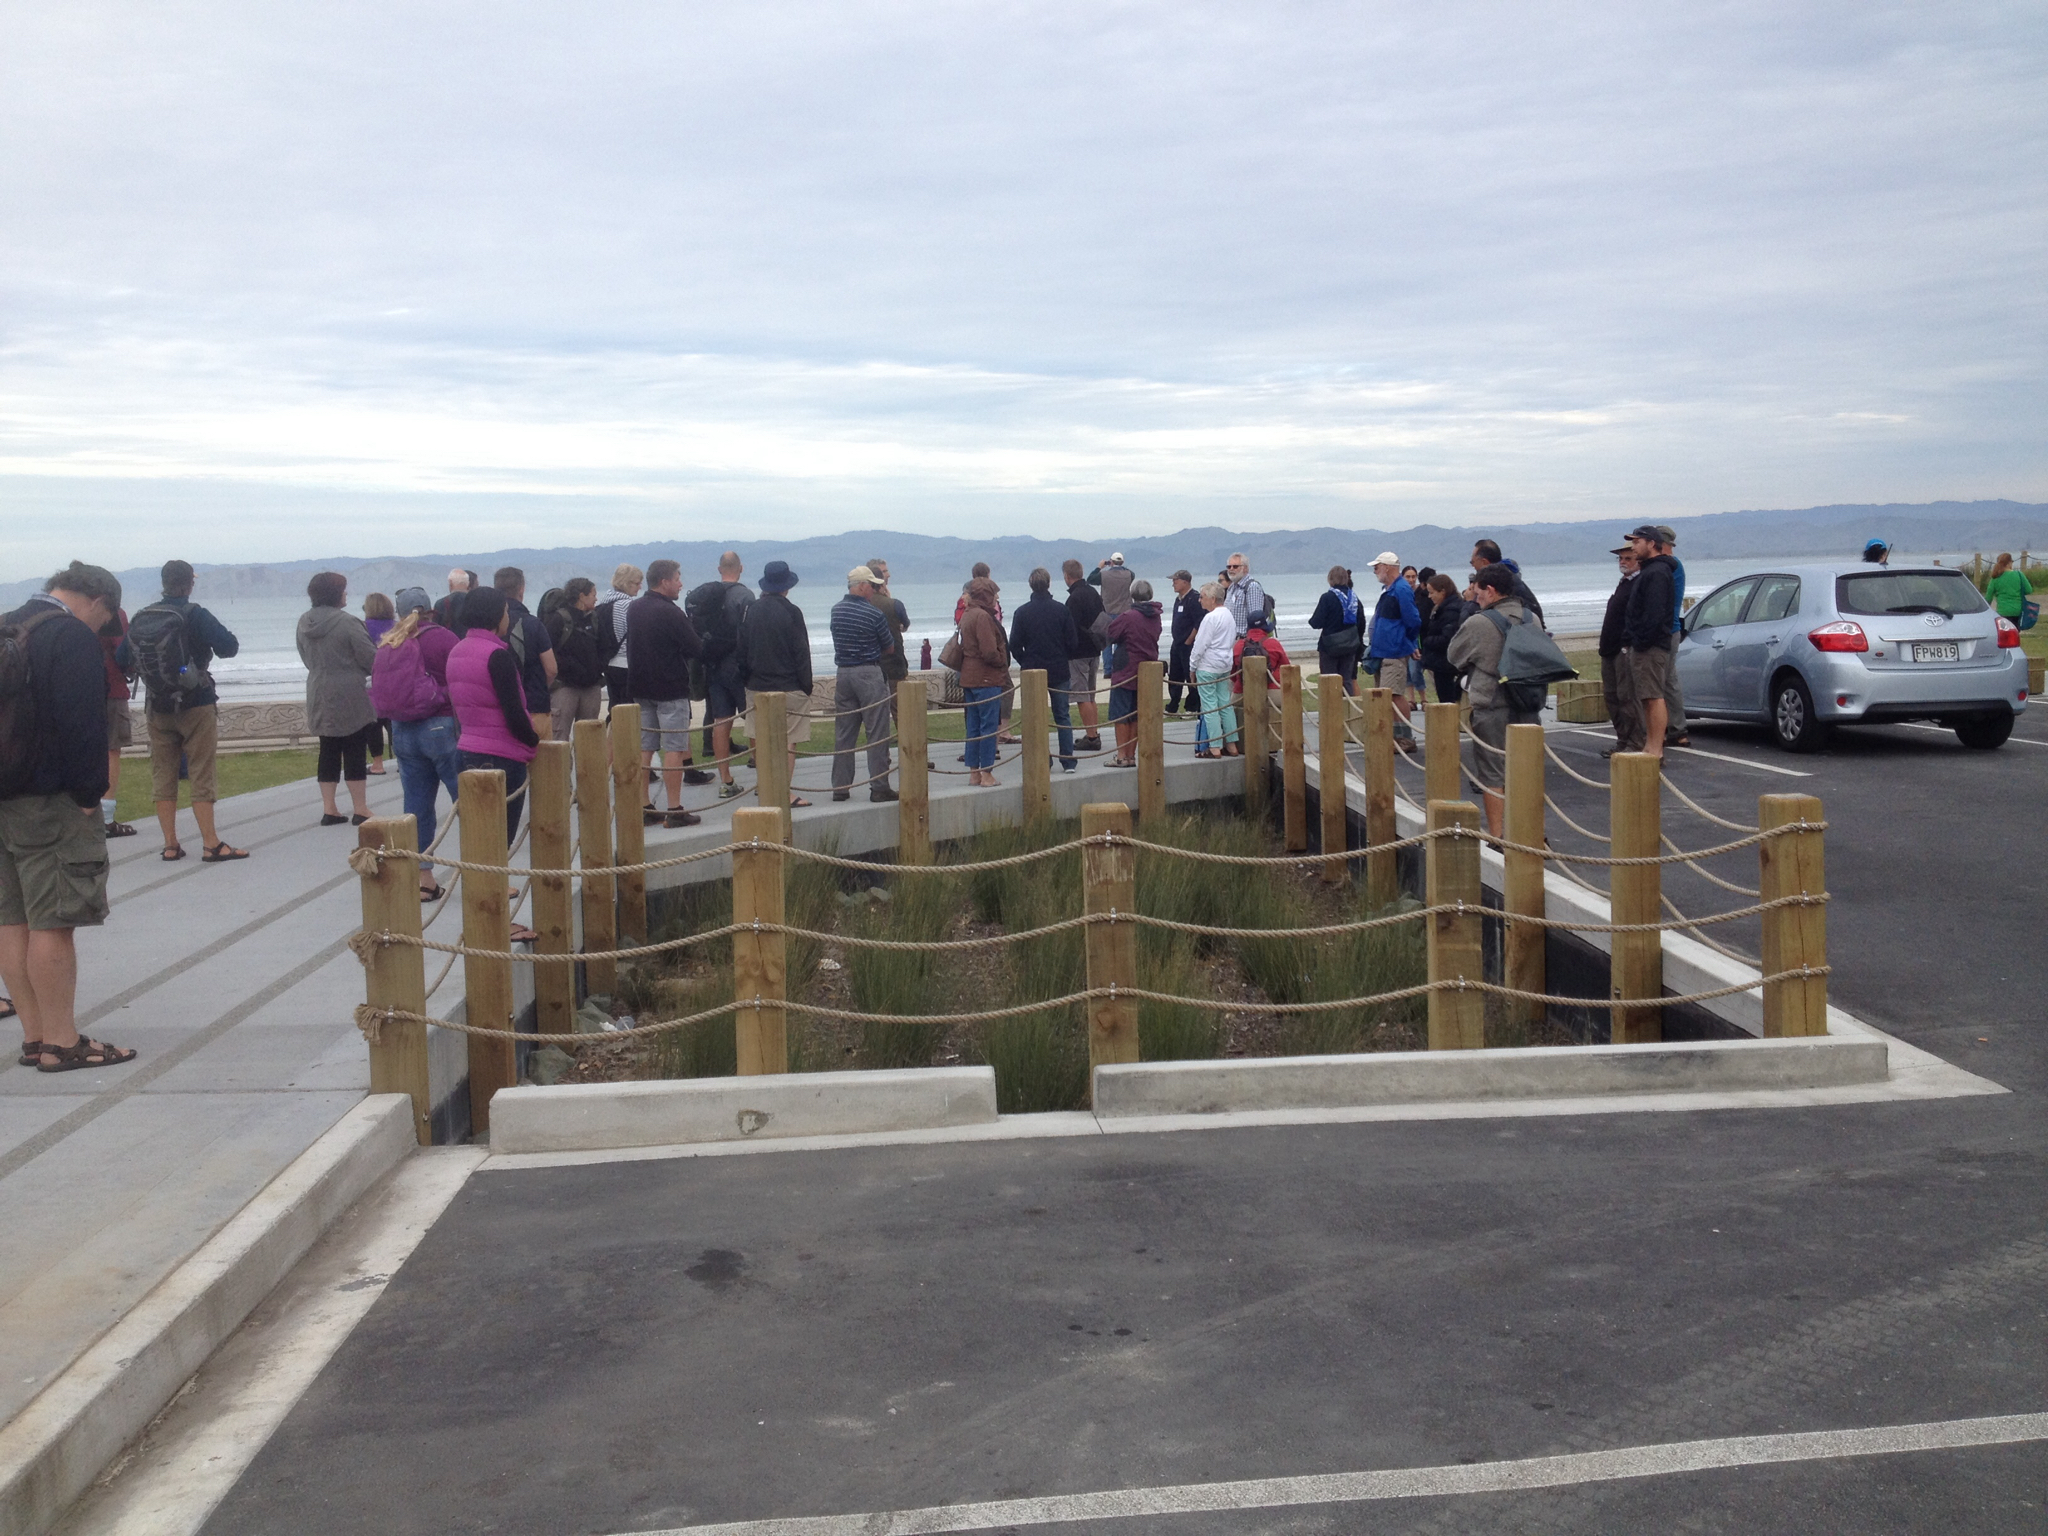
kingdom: Plantae
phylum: Tracheophyta
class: Liliopsida
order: Poales
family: Restionaceae
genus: Apodasmia
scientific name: Apodasmia similis
